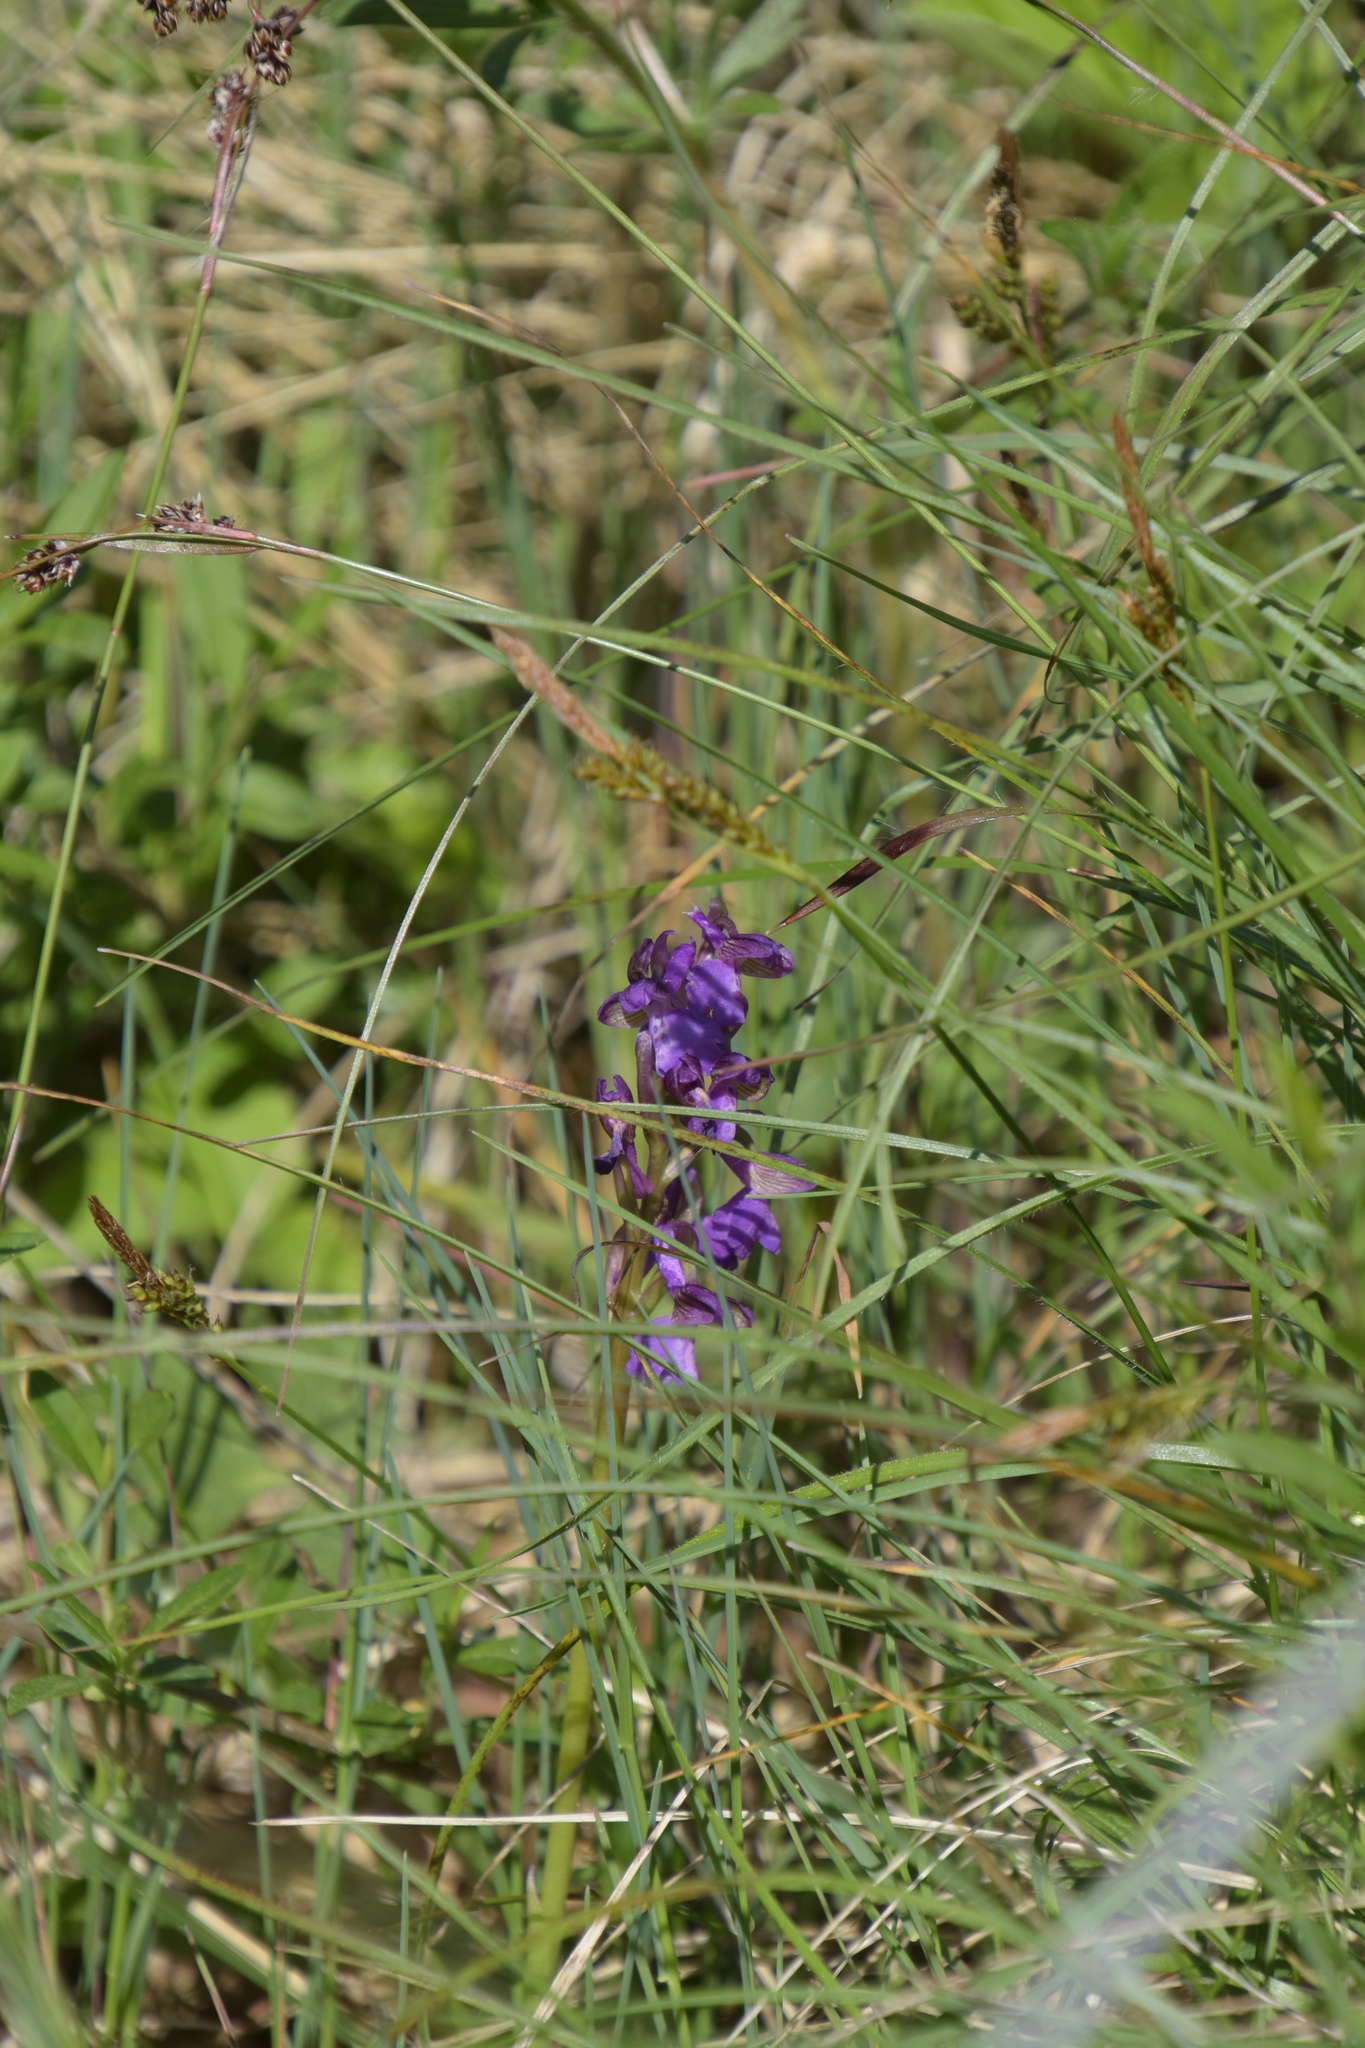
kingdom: Plantae
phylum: Tracheophyta
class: Liliopsida
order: Asparagales
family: Orchidaceae
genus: Anacamptis
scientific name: Anacamptis morio
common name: Green-winged orchid
